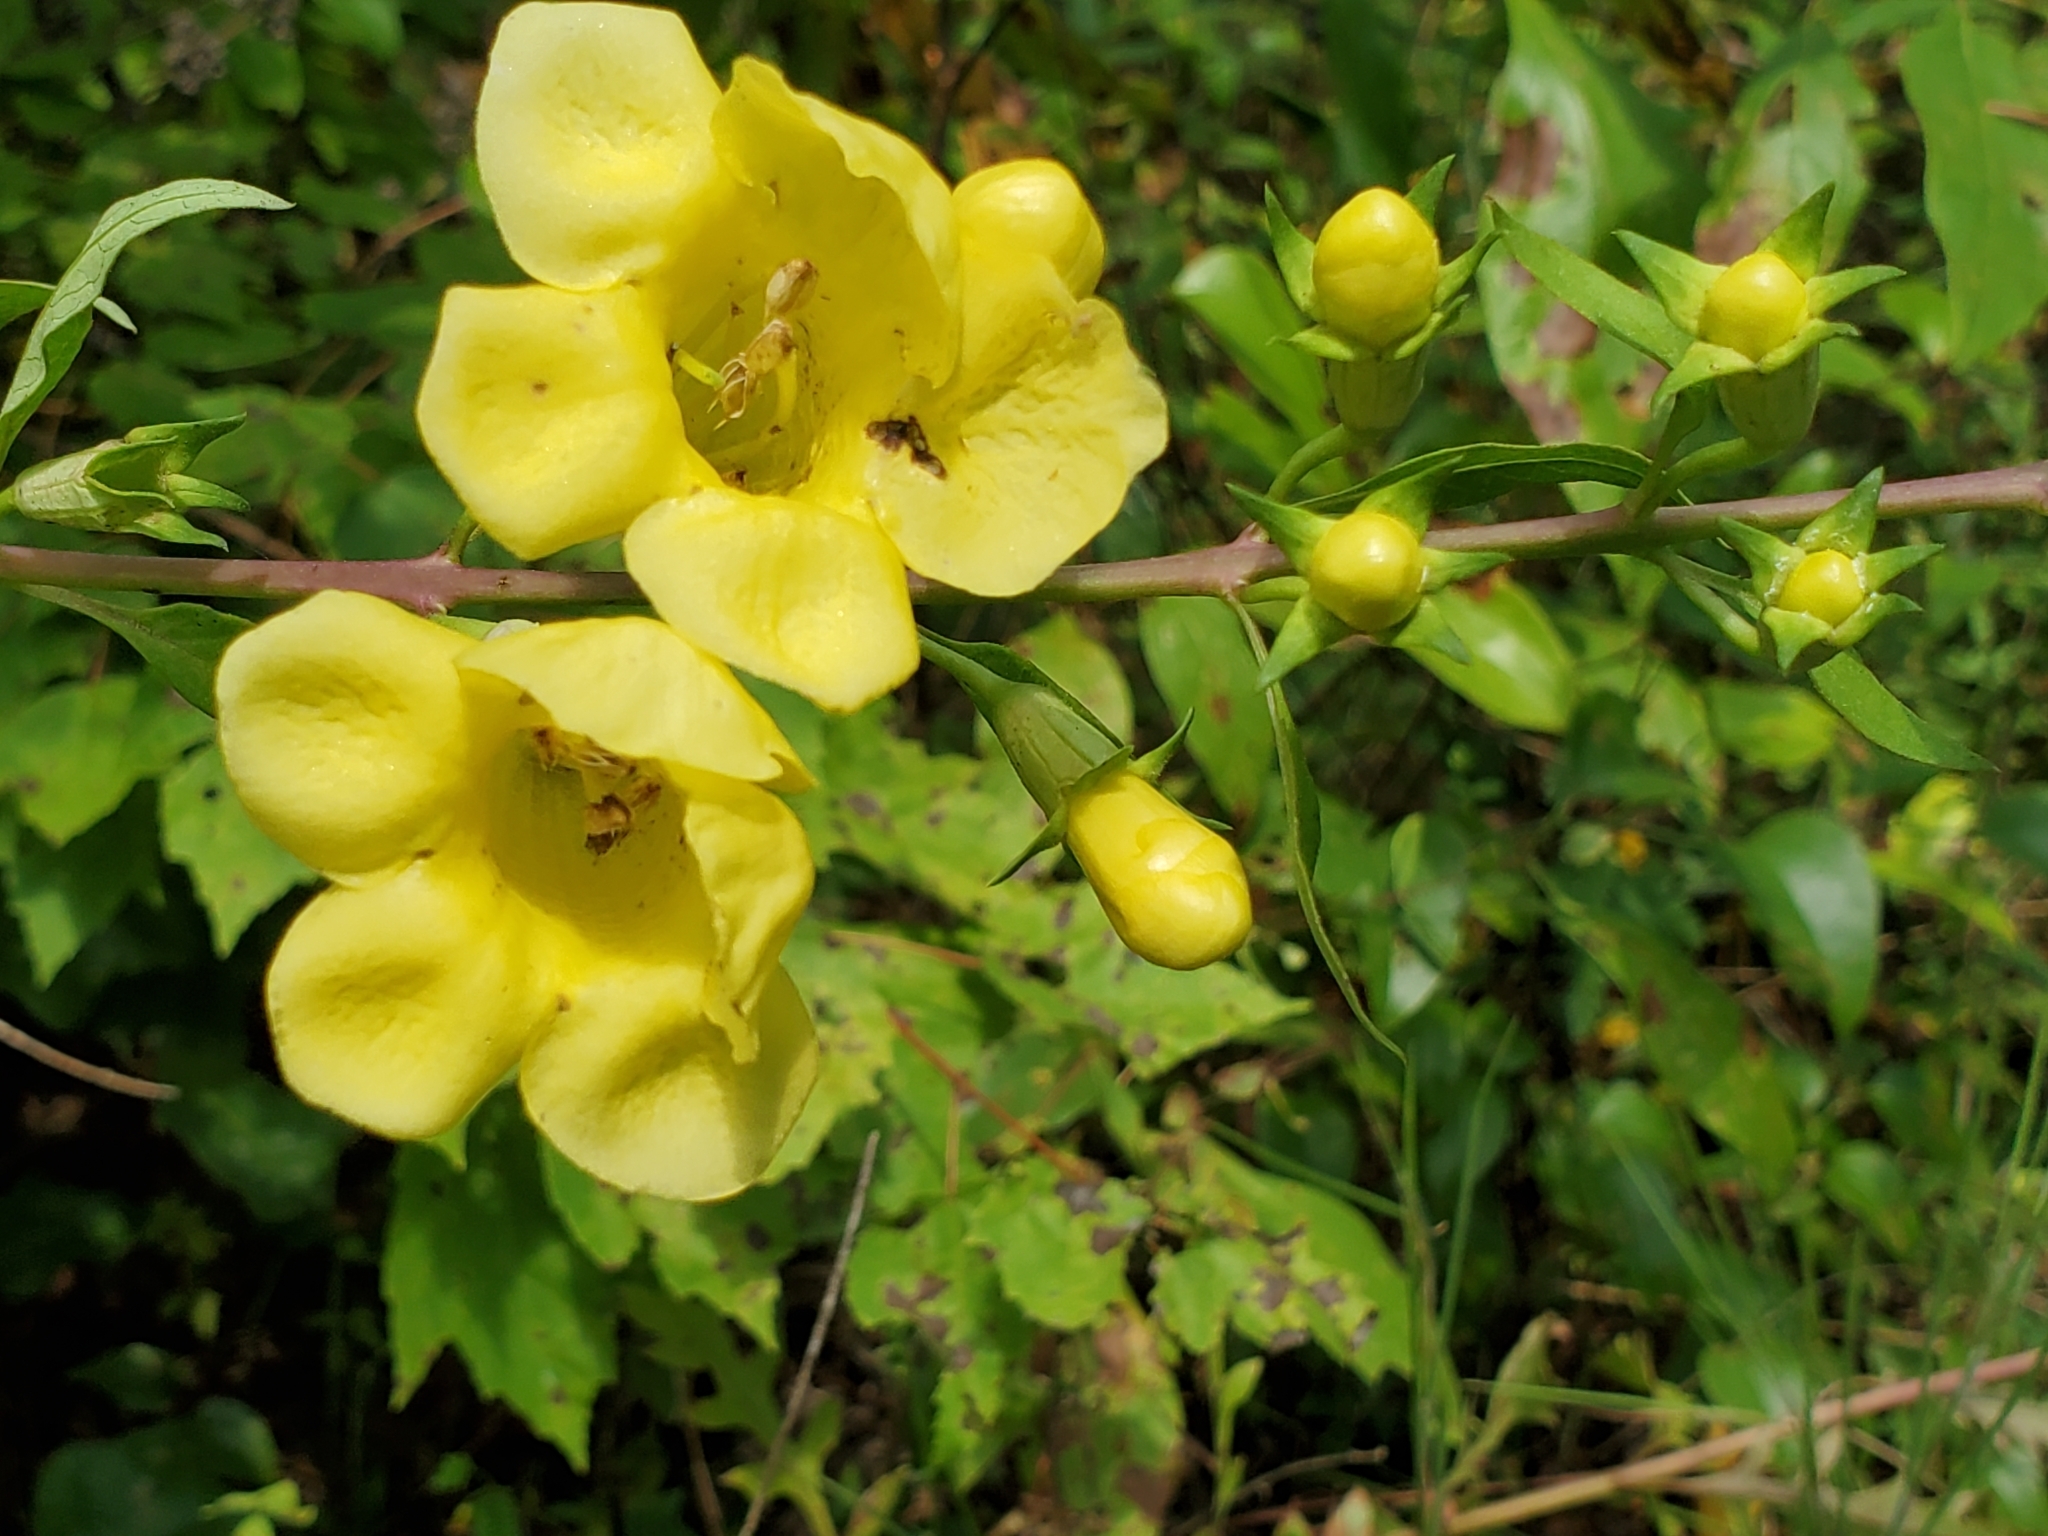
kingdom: Plantae
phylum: Tracheophyta
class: Magnoliopsida
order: Lamiales
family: Orobanchaceae
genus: Aureolaria
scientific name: Aureolaria flava
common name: Smooth false foxglove
